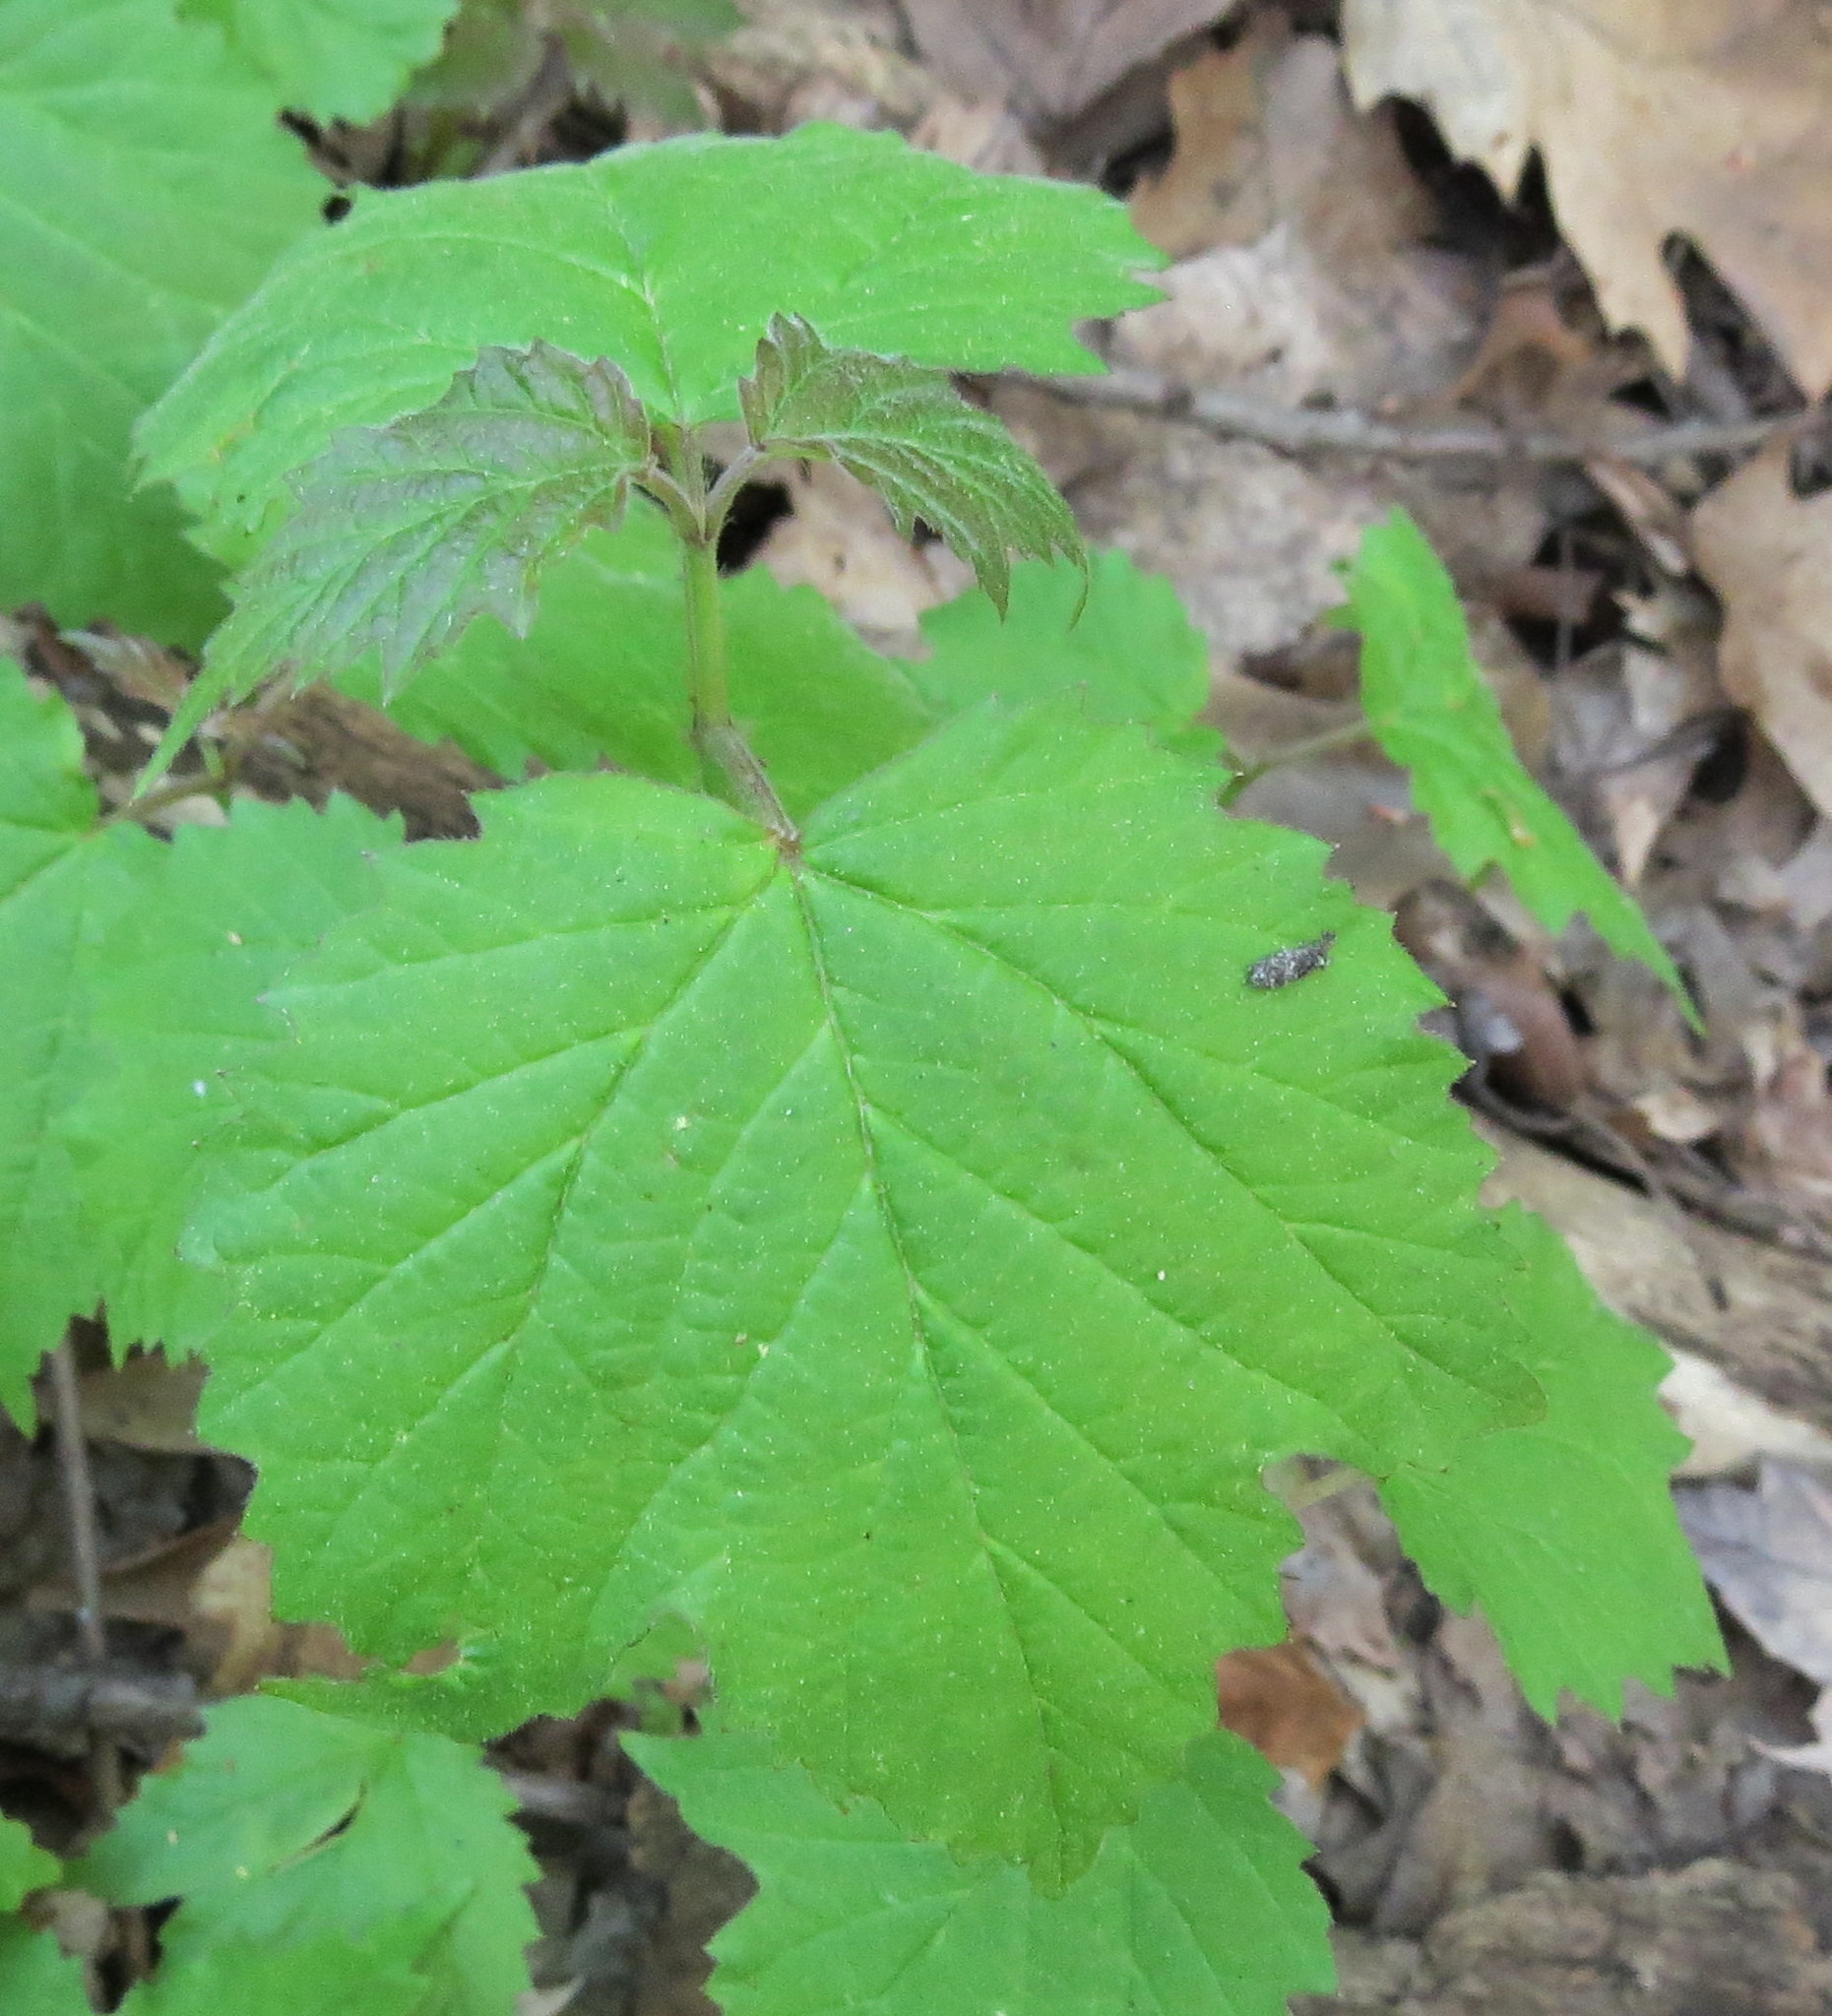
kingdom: Plantae
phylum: Tracheophyta
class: Magnoliopsida
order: Dipsacales
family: Viburnaceae
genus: Viburnum
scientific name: Viburnum acerifolium
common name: Dockmackie
